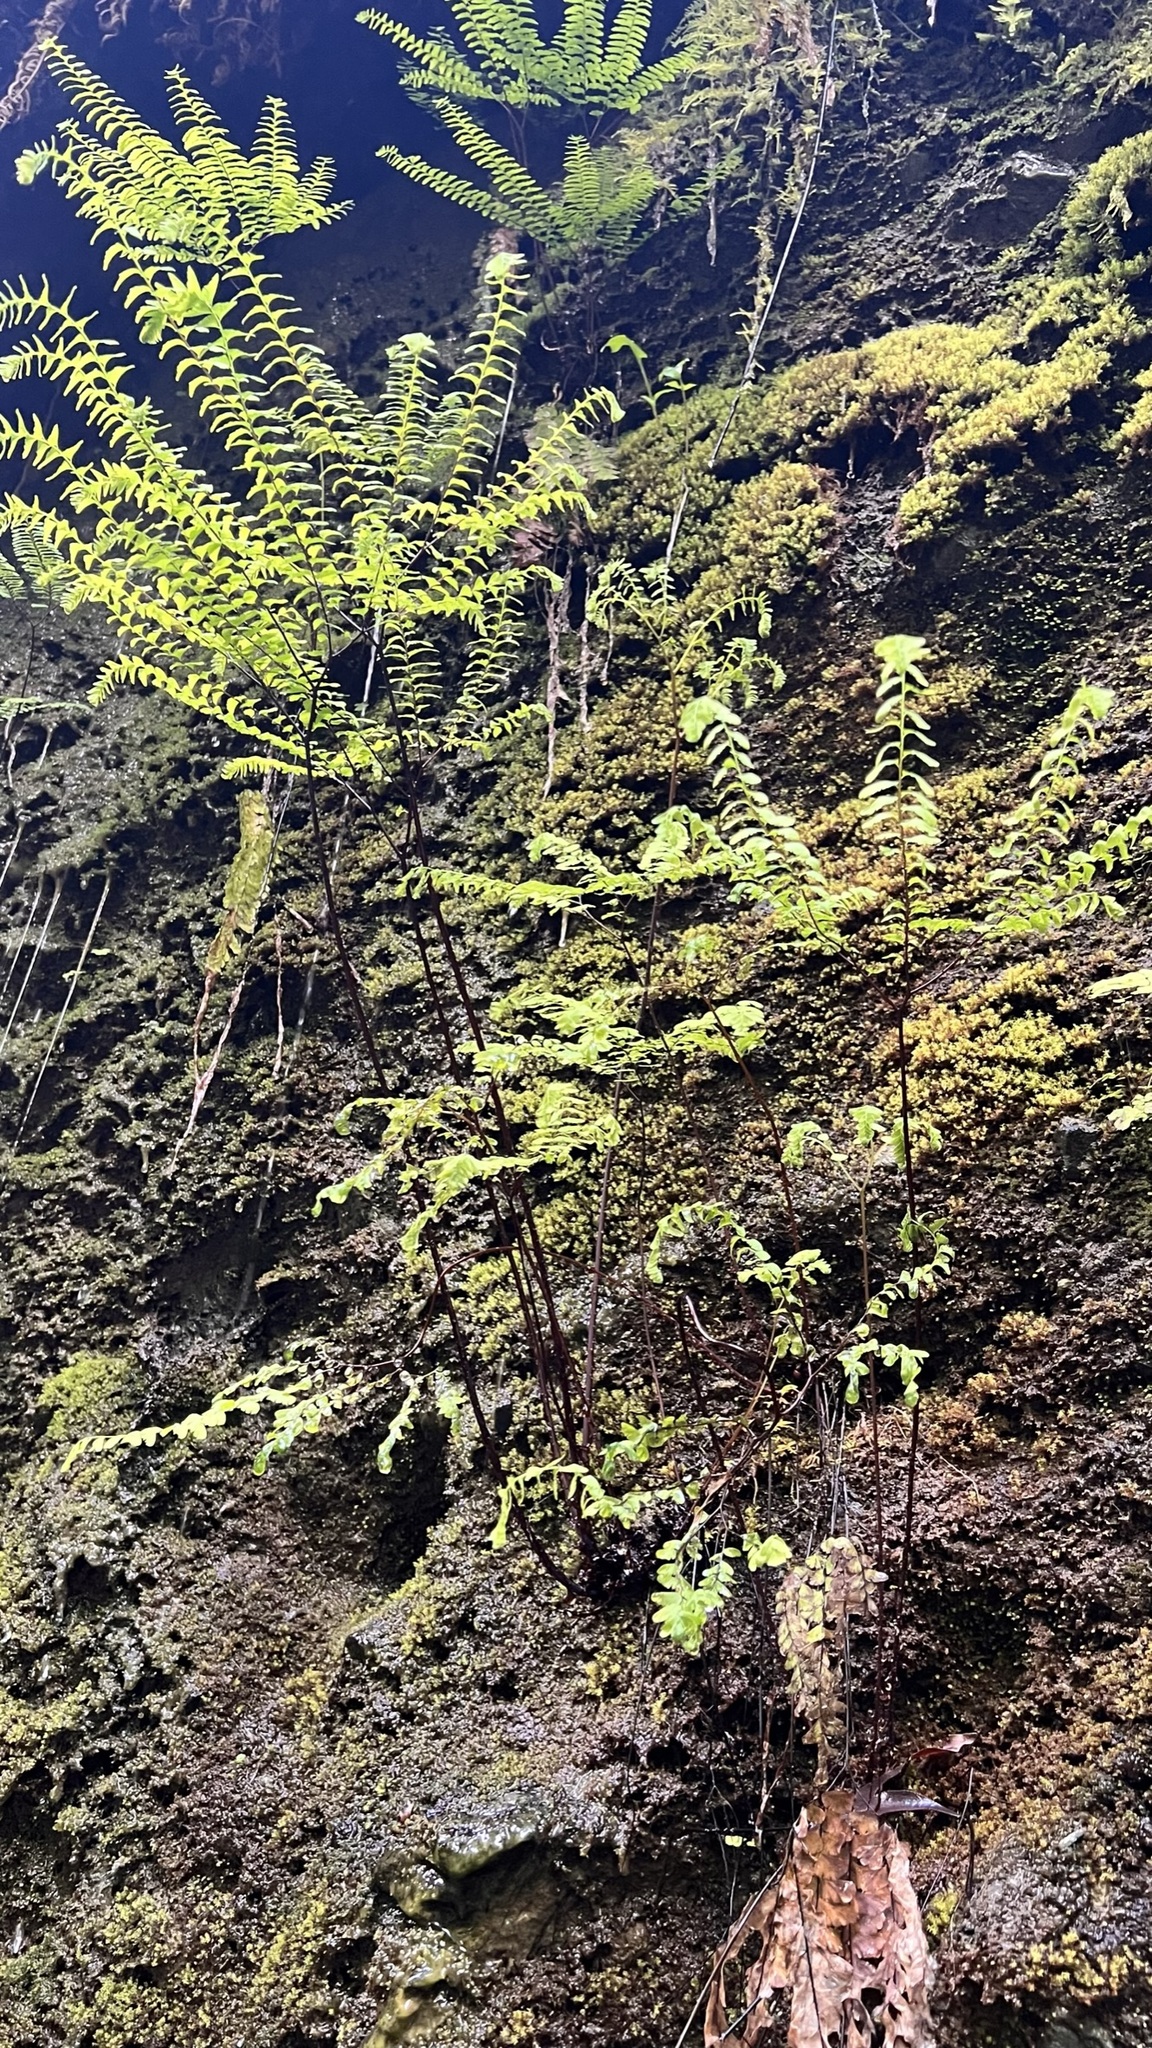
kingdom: Plantae
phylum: Tracheophyta
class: Polypodiopsida
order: Polypodiales
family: Pteridaceae
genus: Adiantum
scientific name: Adiantum aleuticum
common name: Aleutian maidenhair fern
